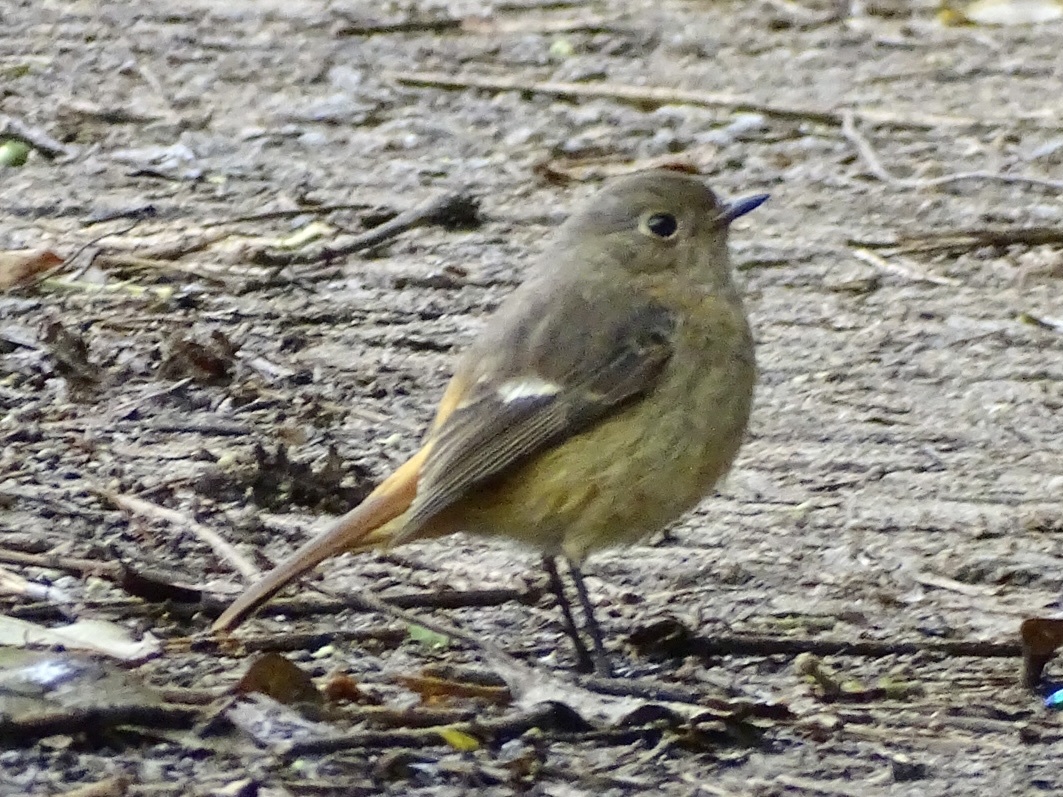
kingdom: Animalia
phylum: Chordata
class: Aves
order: Passeriformes
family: Muscicapidae
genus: Phoenicurus
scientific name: Phoenicurus auroreus
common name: Daurian redstart
